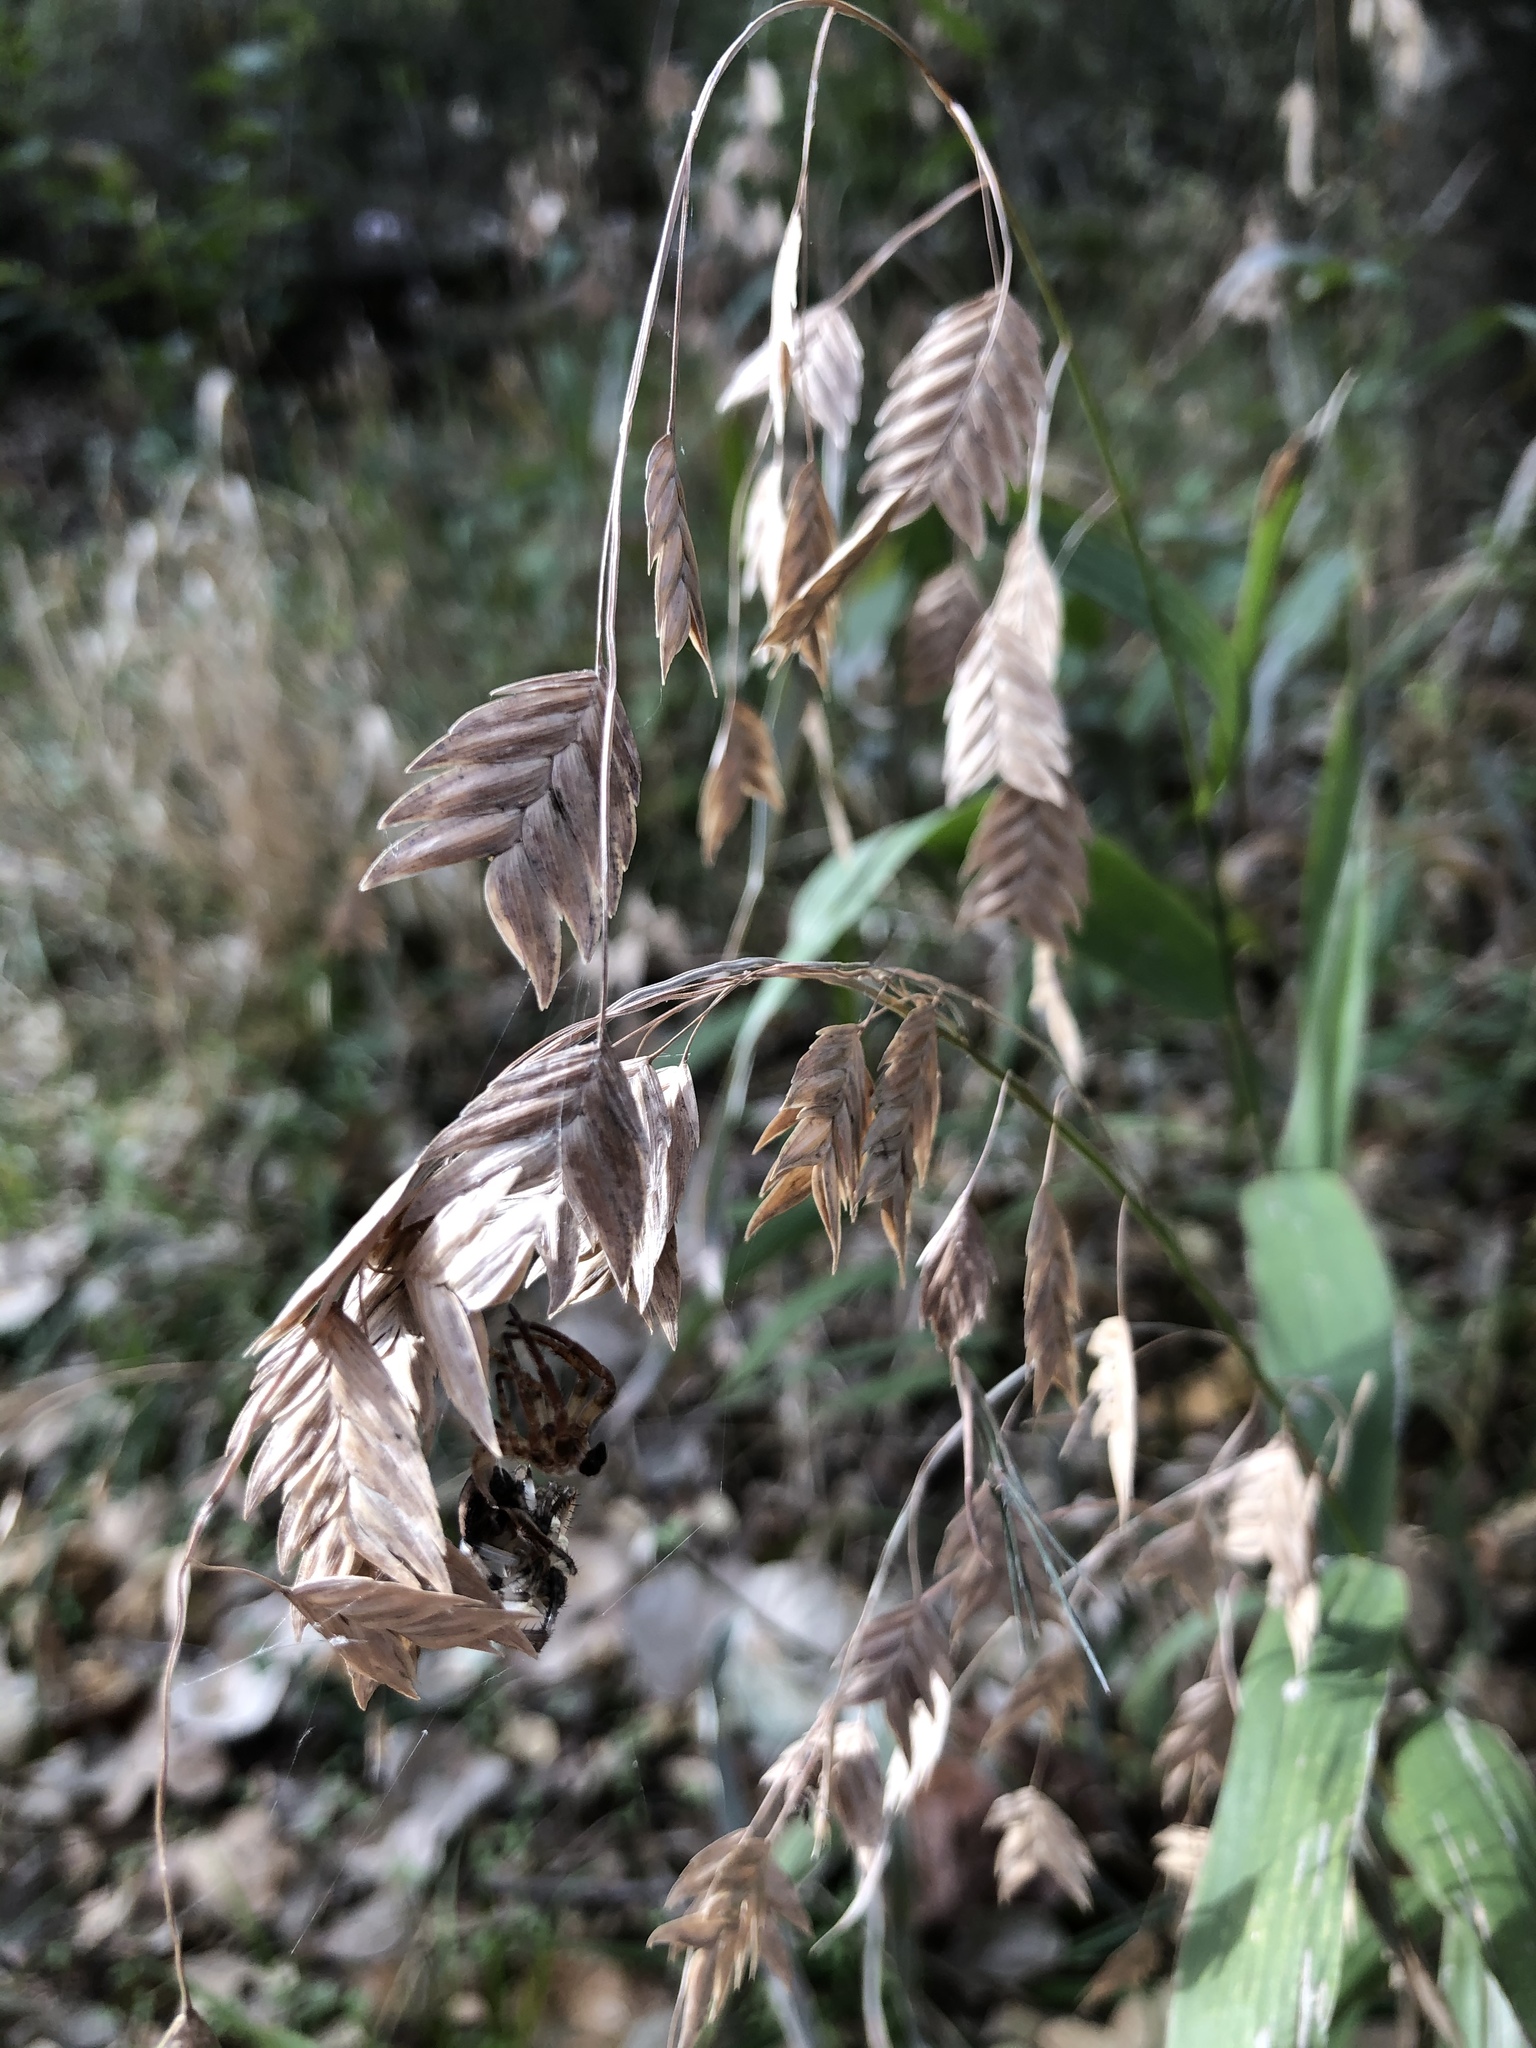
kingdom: Plantae
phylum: Tracheophyta
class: Liliopsida
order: Poales
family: Poaceae
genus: Chasmanthium
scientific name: Chasmanthium latifolium
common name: Broad-leaved chasmanthium
